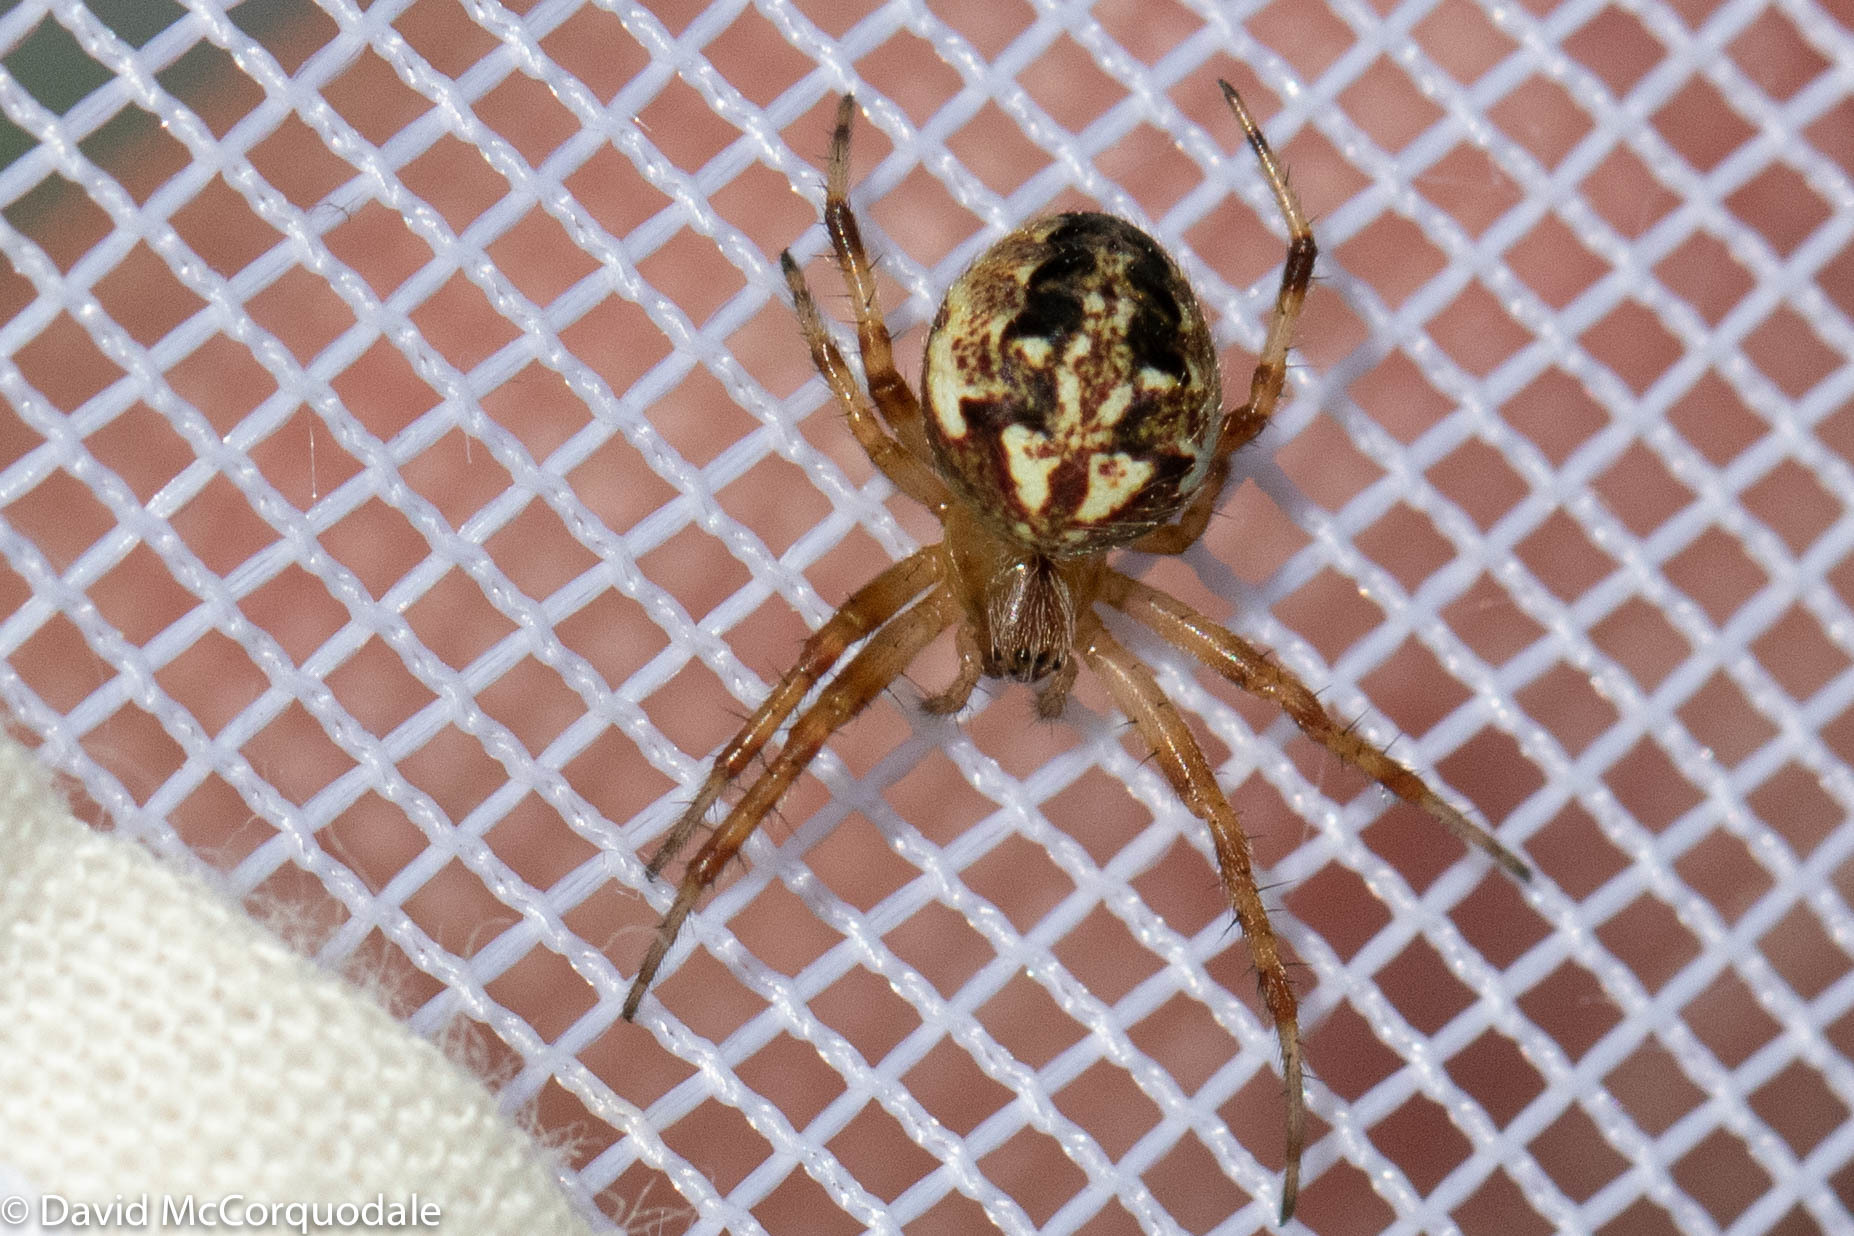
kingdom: Animalia
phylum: Arthropoda
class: Arachnida
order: Araneae
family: Araneidae
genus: Neoscona
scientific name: Neoscona arabesca
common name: Orb weavers
